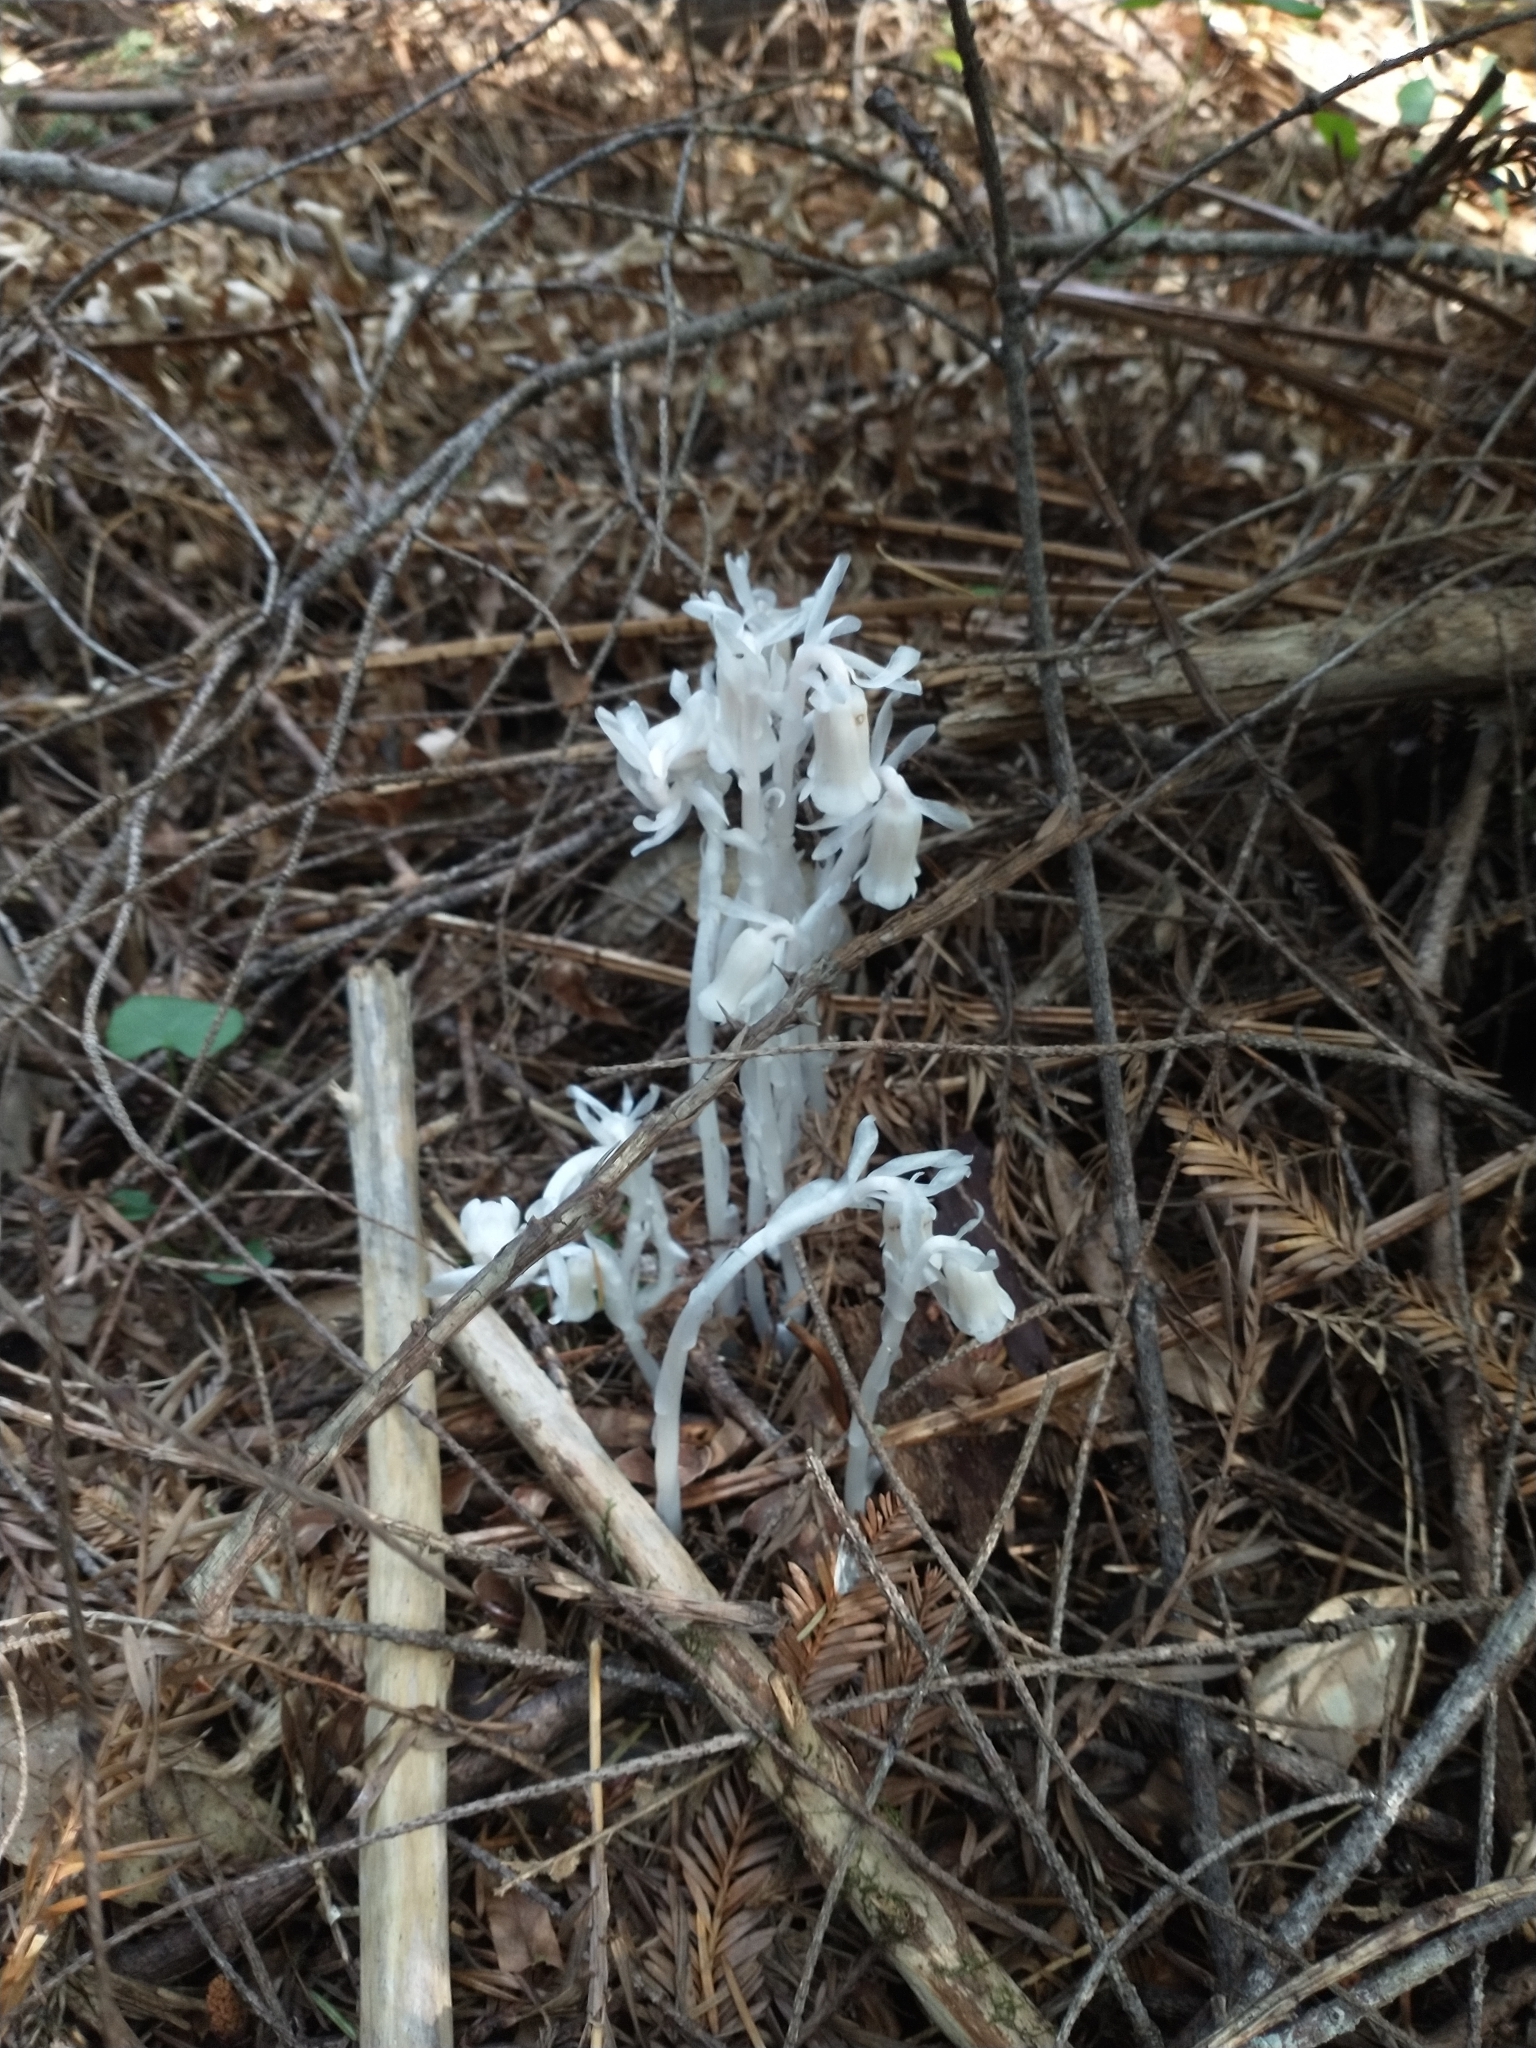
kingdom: Plantae
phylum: Tracheophyta
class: Magnoliopsida
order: Ericales
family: Ericaceae
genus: Monotropa
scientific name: Monotropa uniflora
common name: Convulsion root
